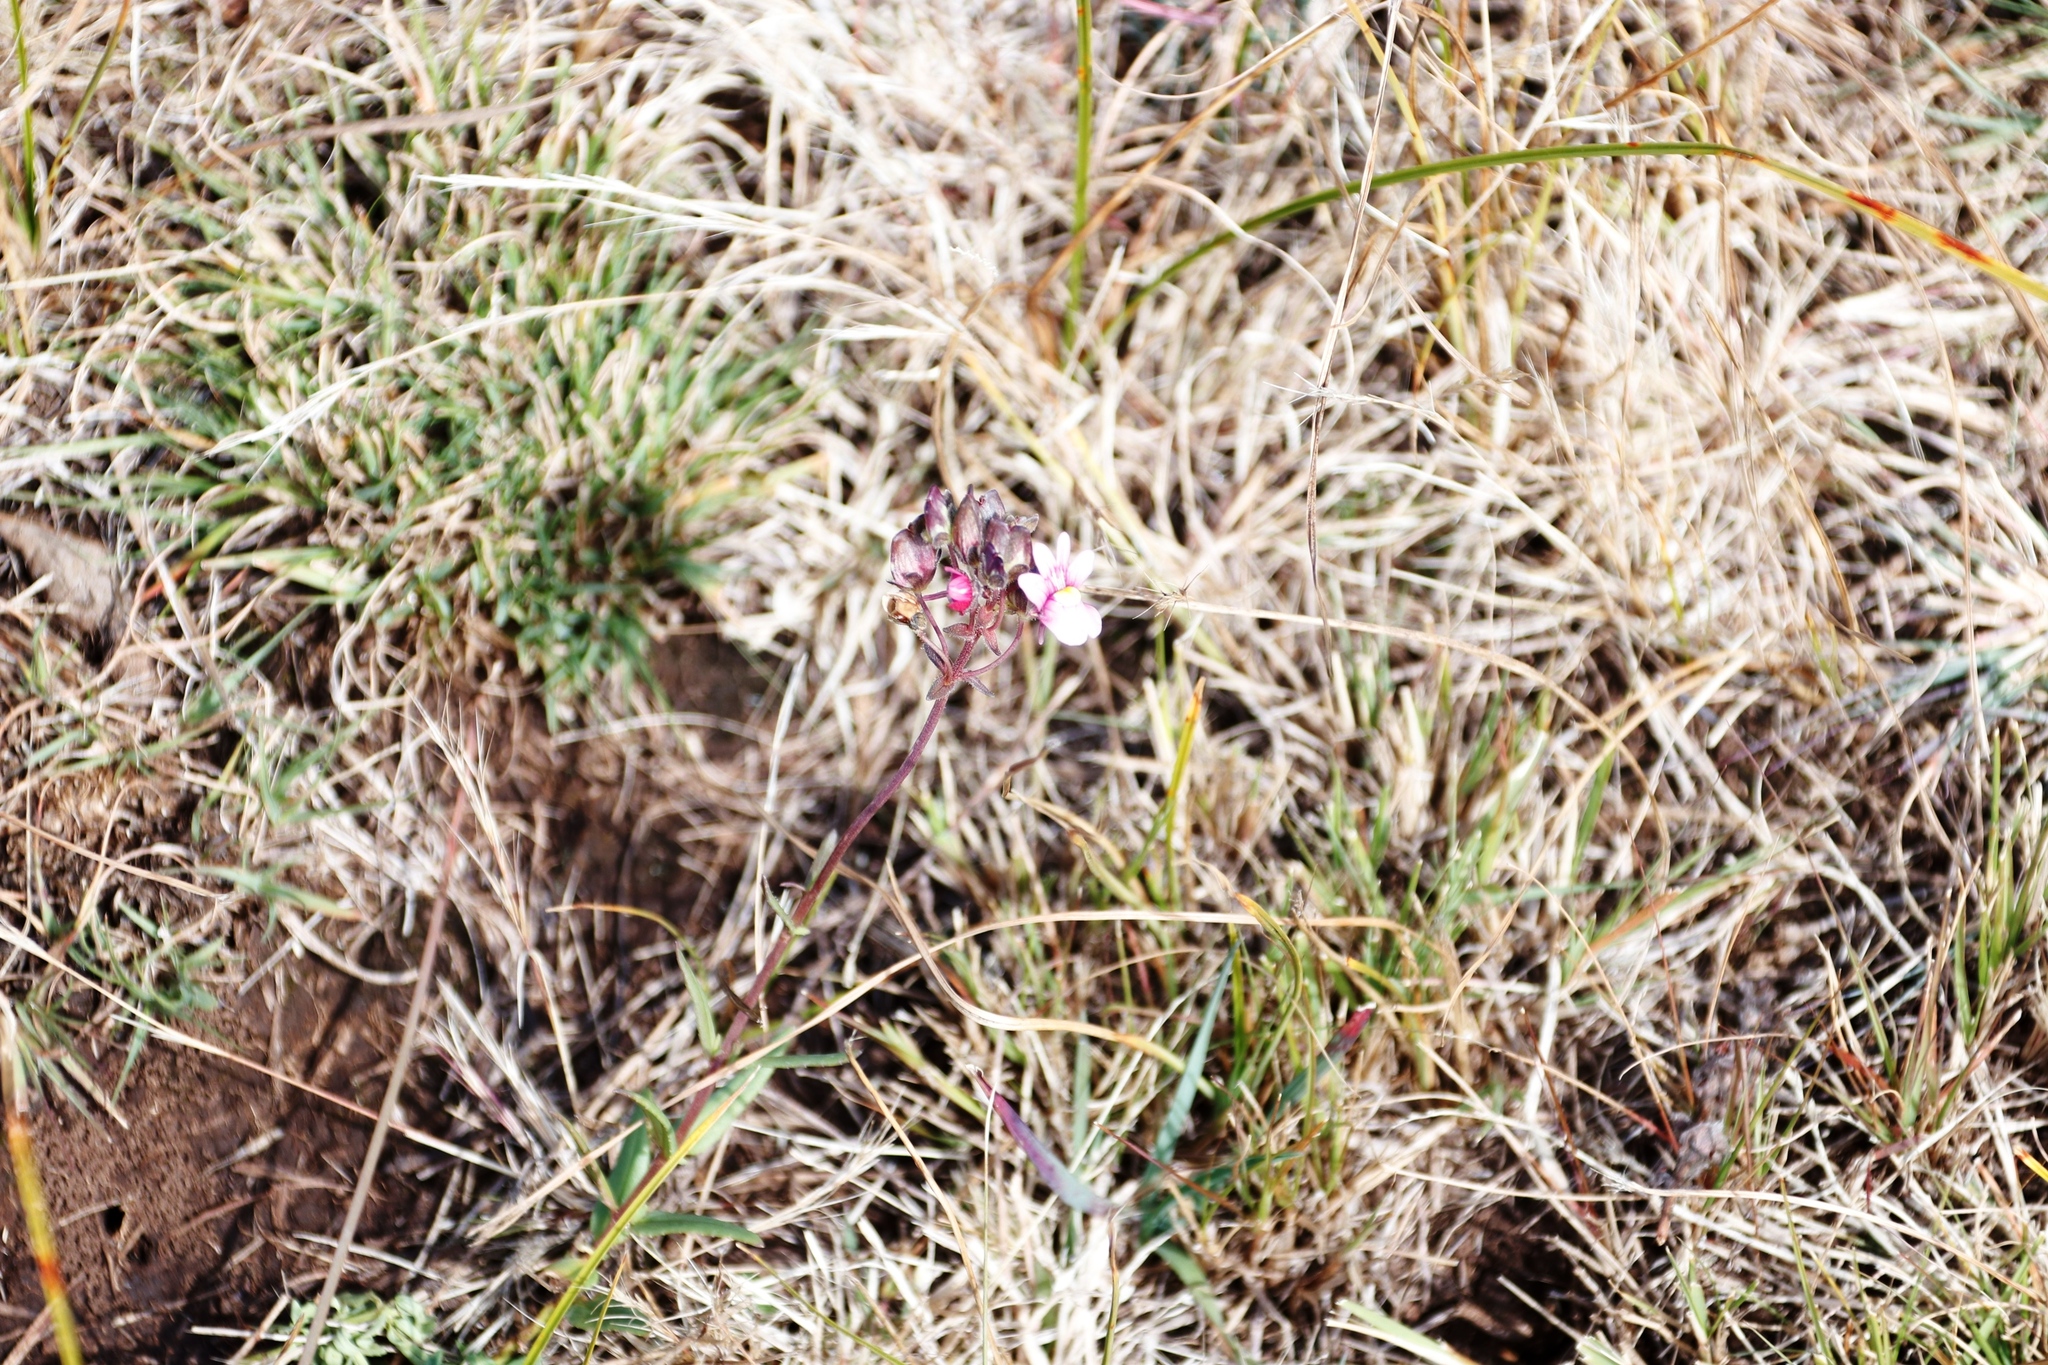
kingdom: Plantae
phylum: Tracheophyta
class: Magnoliopsida
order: Lamiales
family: Scrophulariaceae
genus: Nemesia
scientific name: Nemesia fruticans
